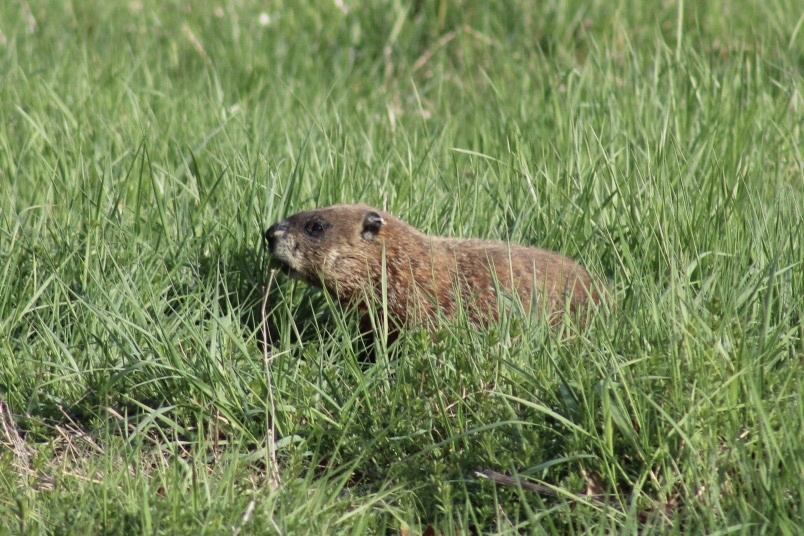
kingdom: Animalia
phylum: Chordata
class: Mammalia
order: Rodentia
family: Sciuridae
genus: Marmota
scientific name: Marmota monax
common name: Groundhog
